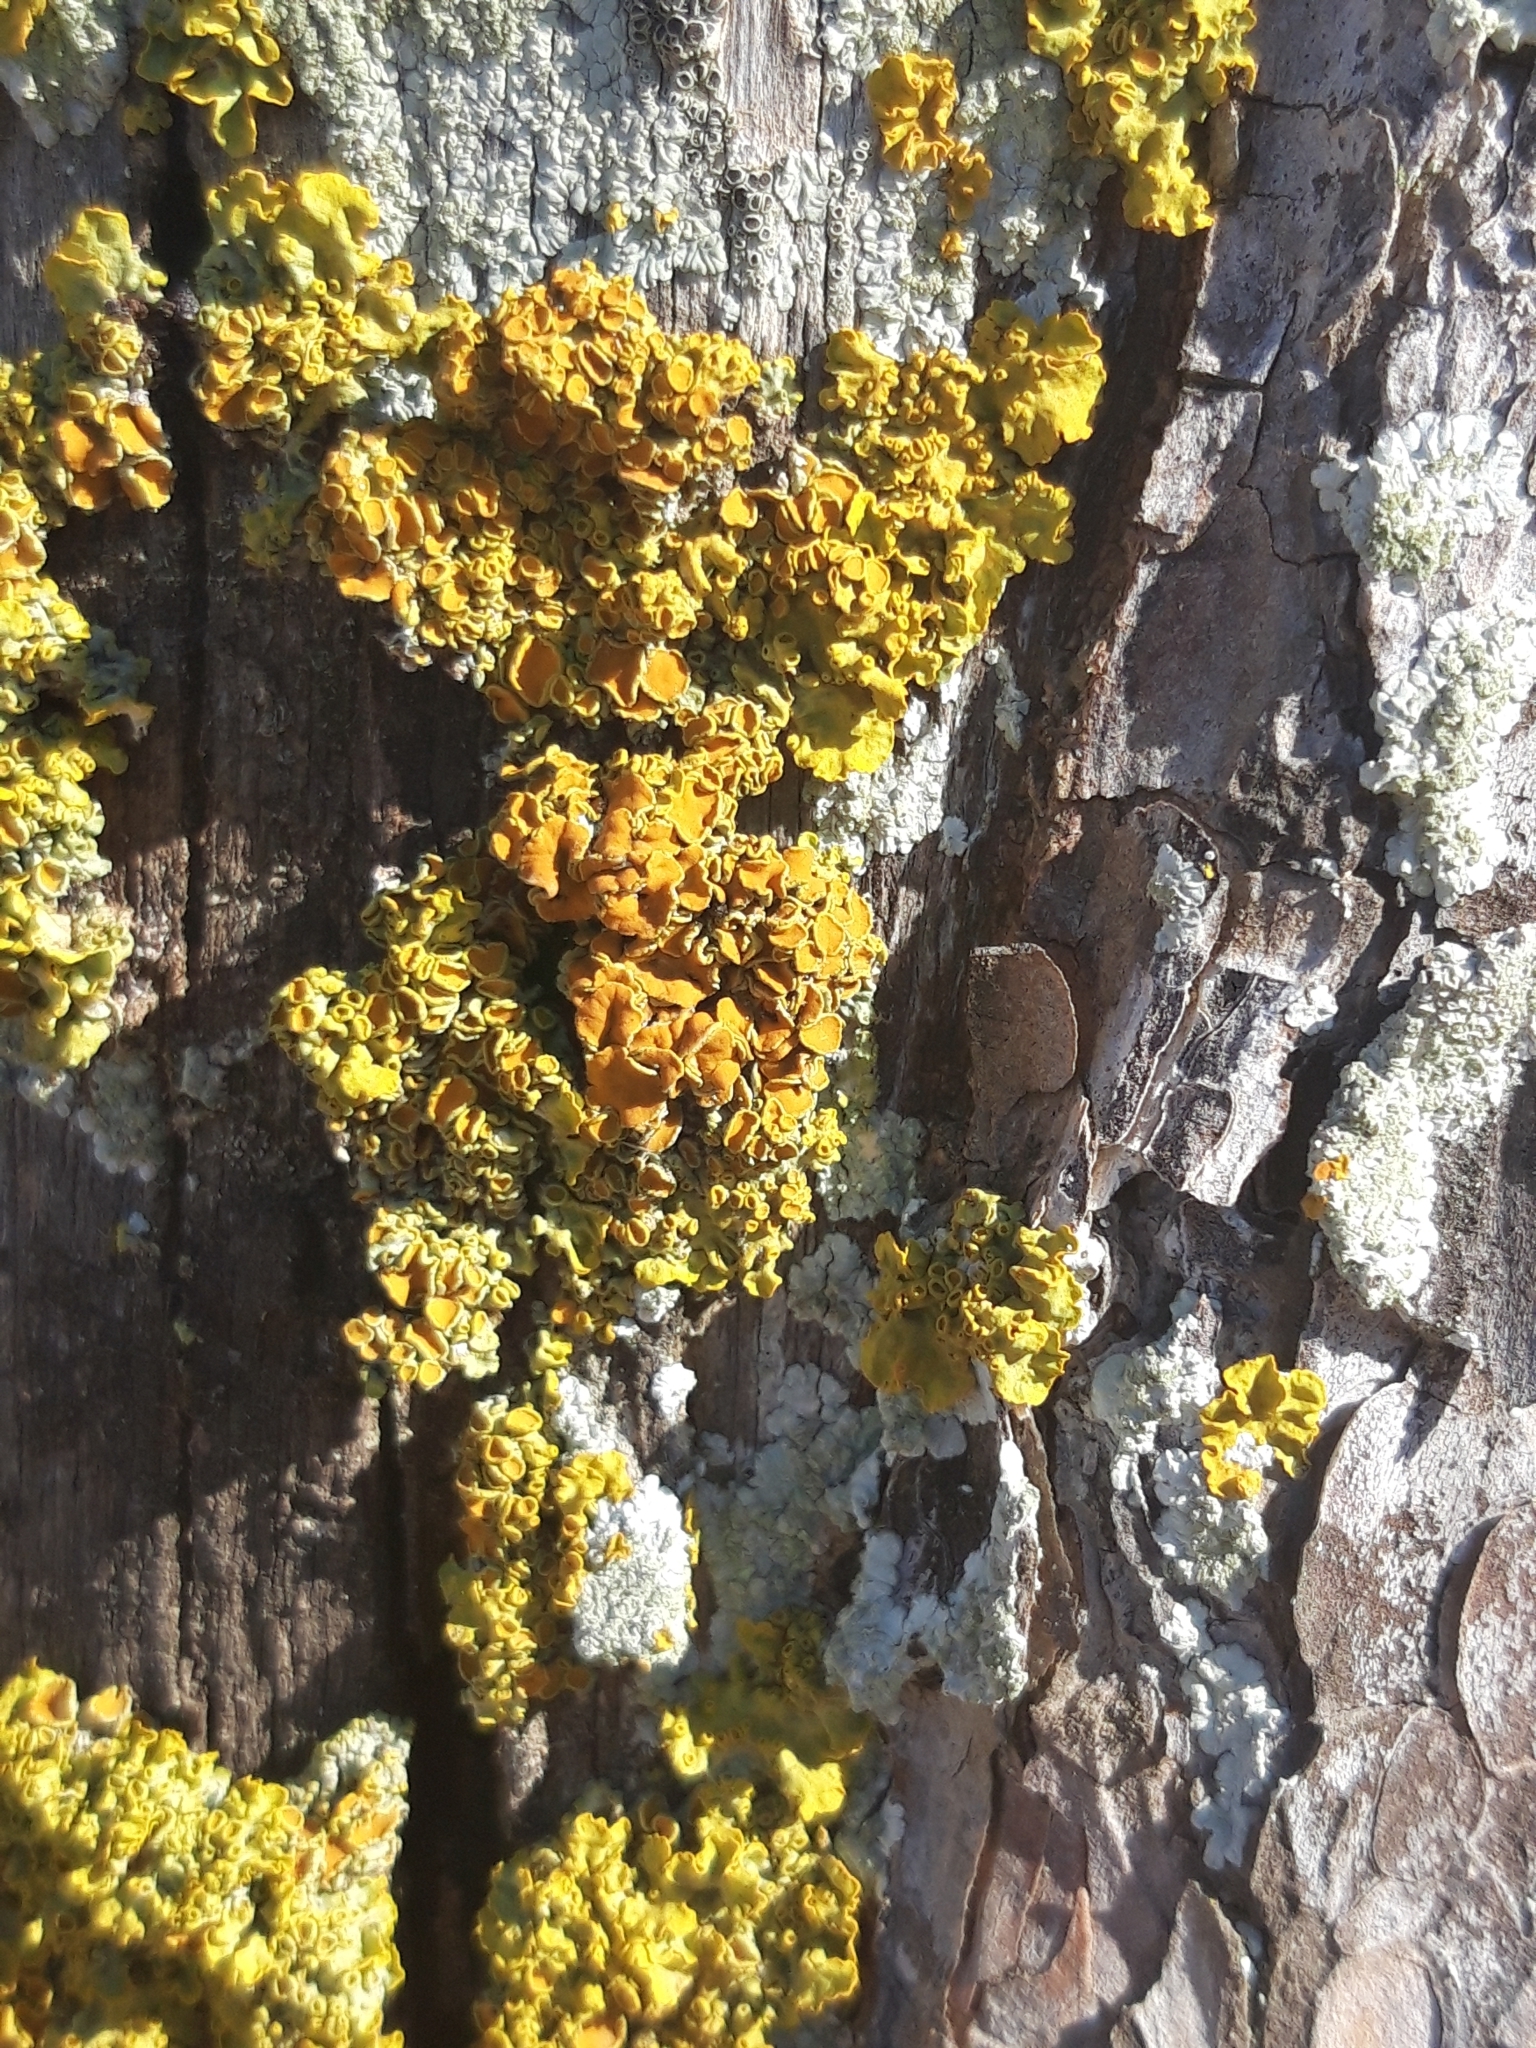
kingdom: Fungi
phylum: Ascomycota
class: Lecanoromycetes
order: Teloschistales
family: Teloschistaceae
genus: Xanthoria
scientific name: Xanthoria parietina
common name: Common orange lichen
